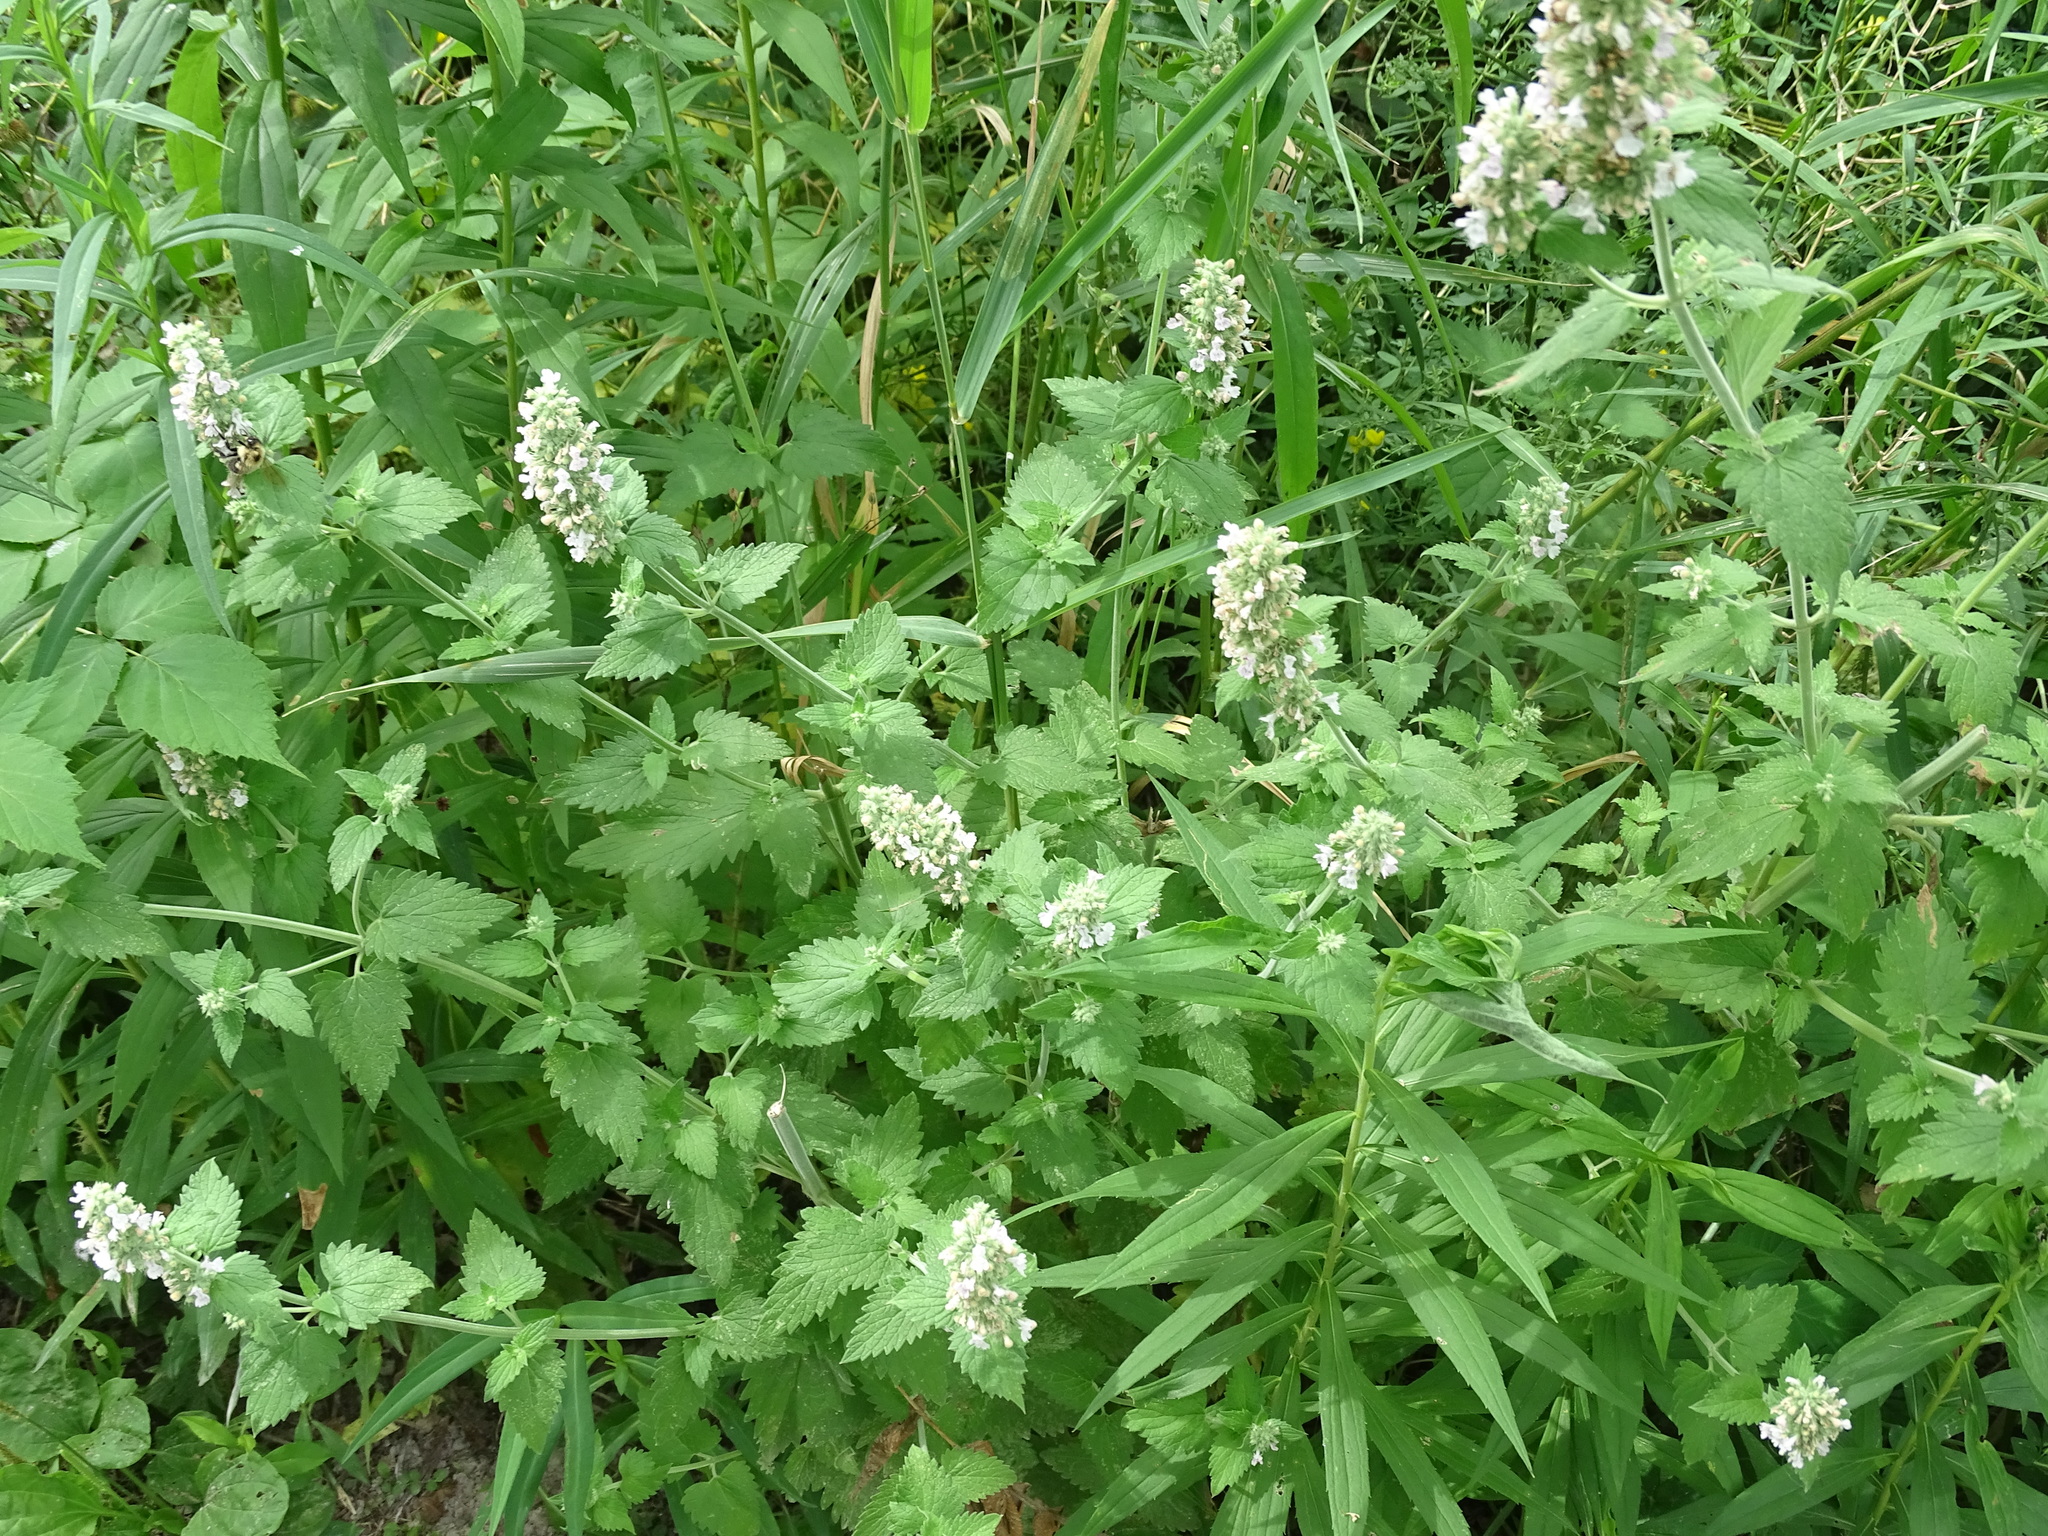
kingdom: Plantae
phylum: Tracheophyta
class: Magnoliopsida
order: Lamiales
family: Lamiaceae
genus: Nepeta
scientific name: Nepeta cataria
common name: Catnip
